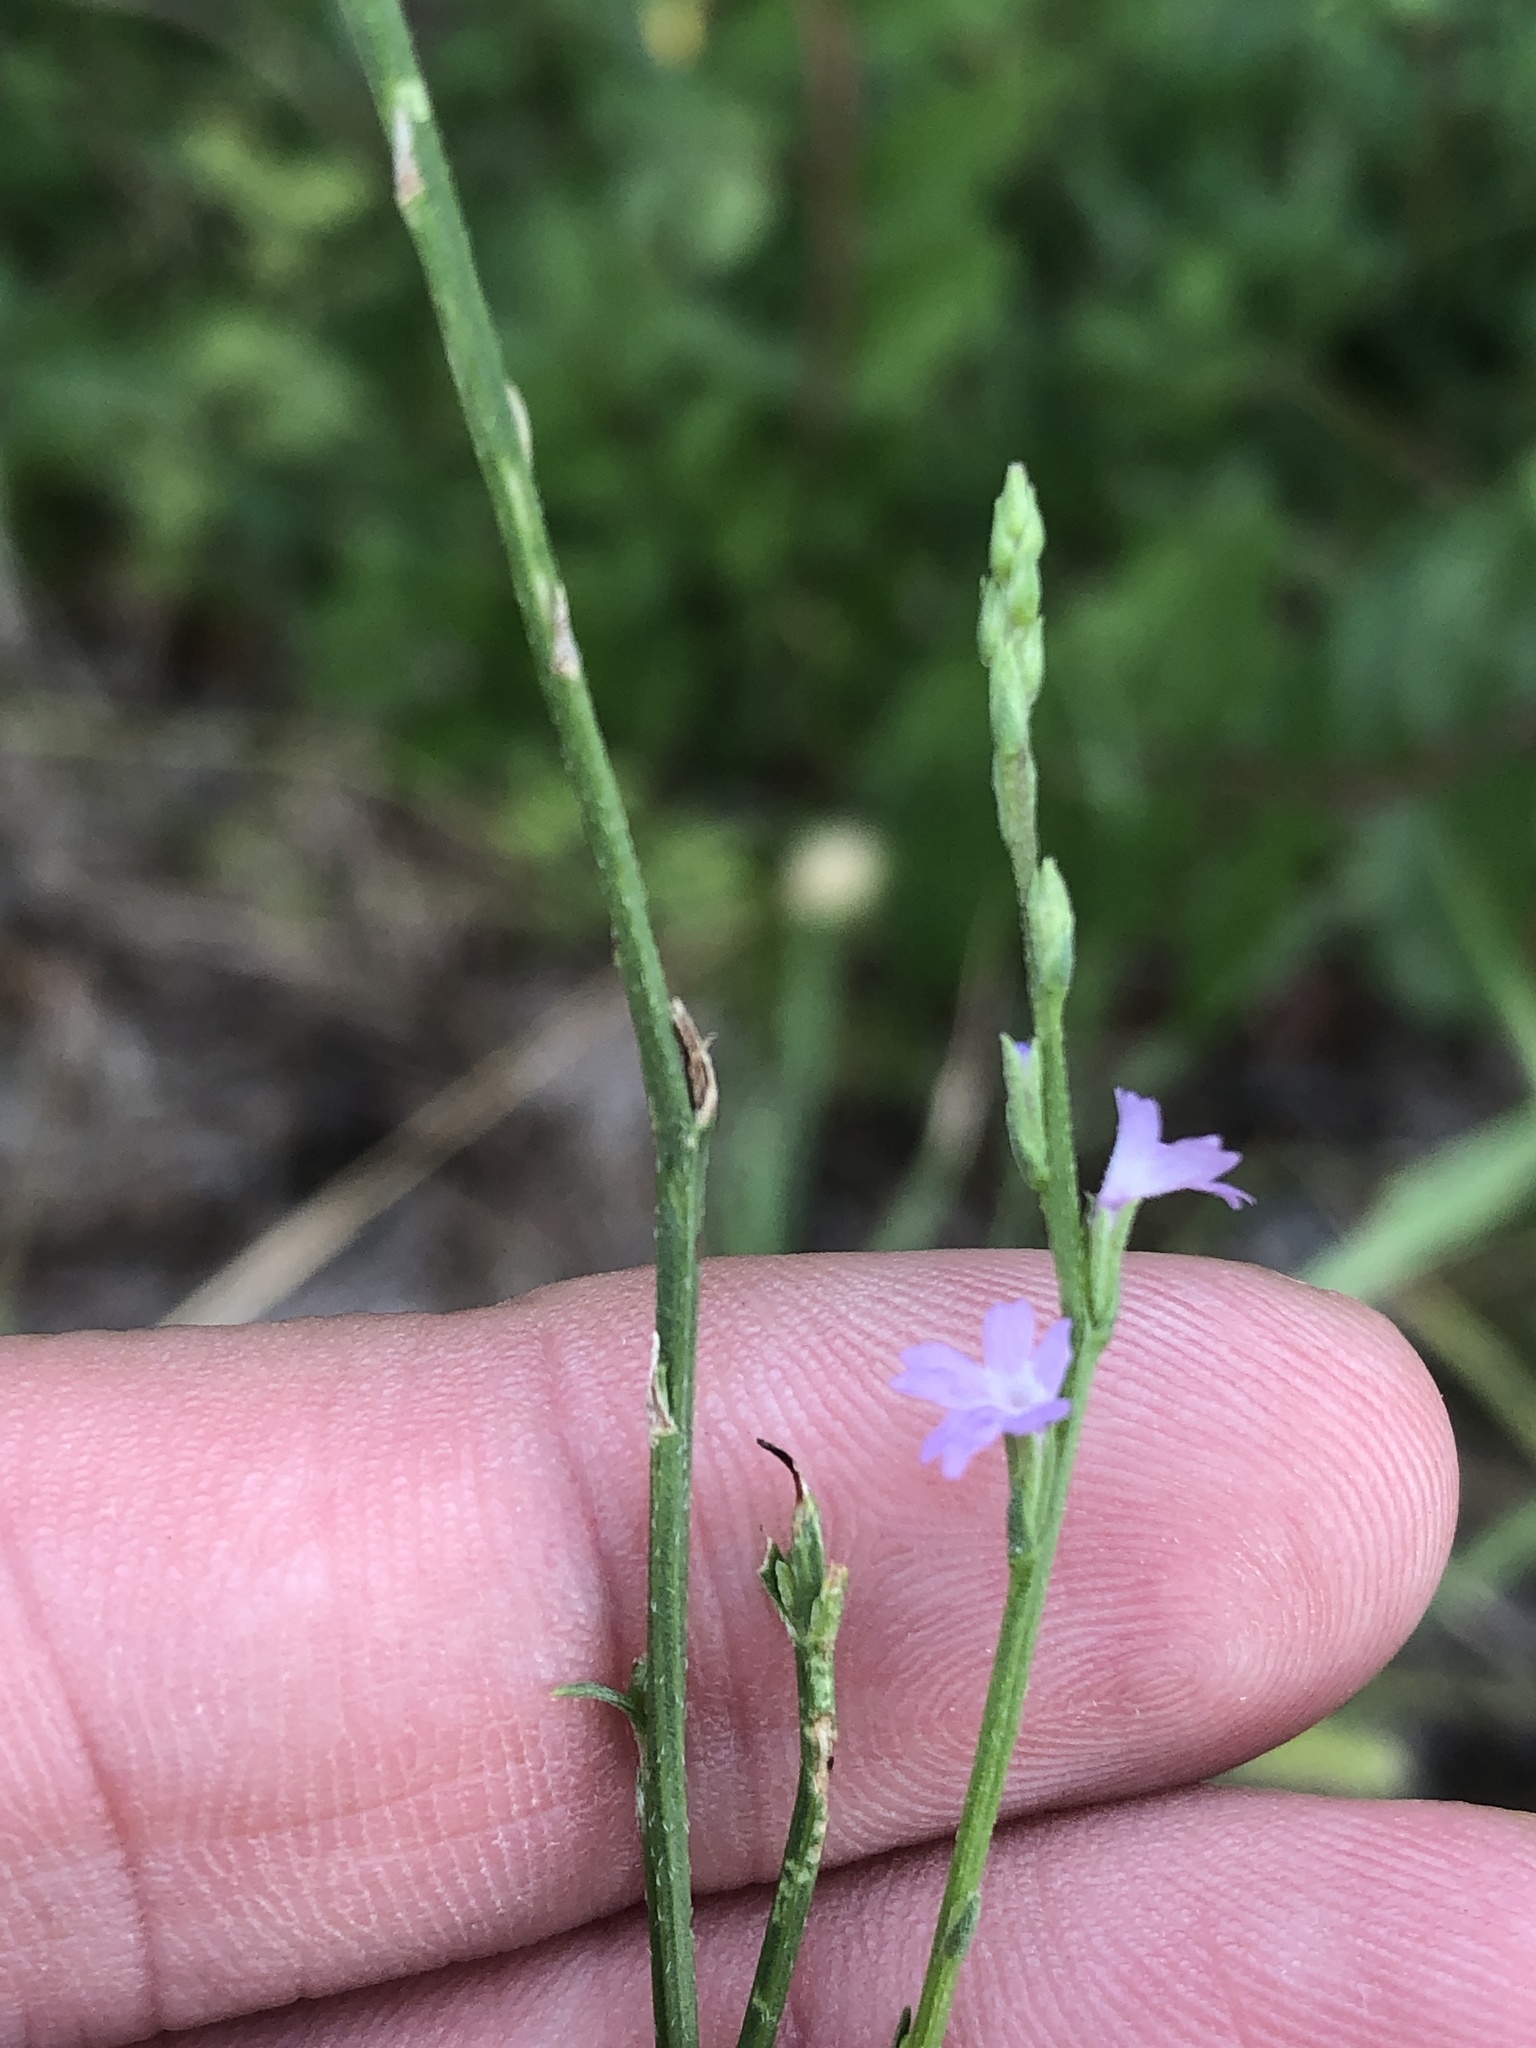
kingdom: Plantae
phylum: Tracheophyta
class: Magnoliopsida
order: Lamiales
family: Verbenaceae
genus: Verbena
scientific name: Verbena halei
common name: Texas vervain
